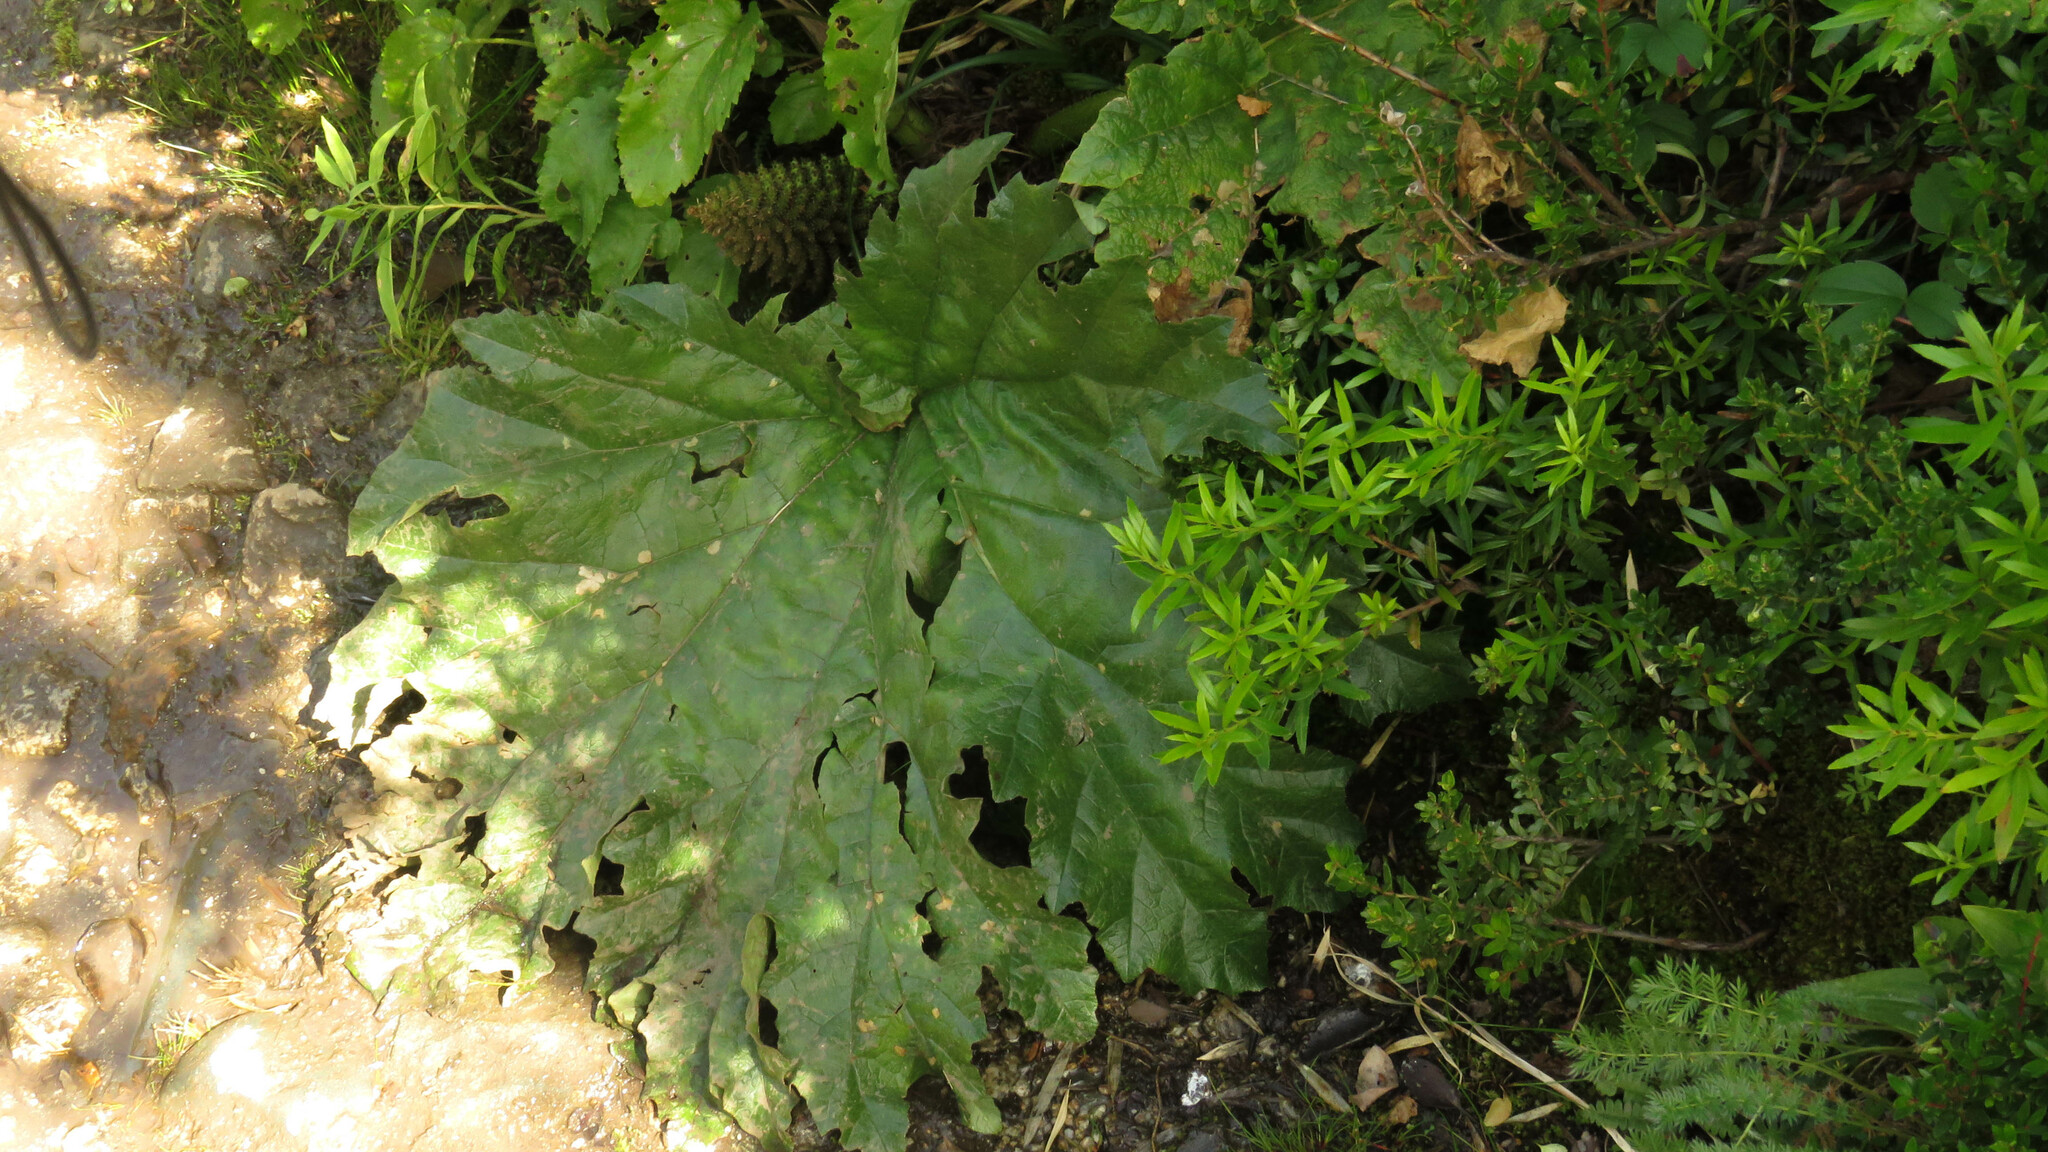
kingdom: Plantae
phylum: Tracheophyta
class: Magnoliopsida
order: Gunnerales
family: Gunneraceae
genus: Gunnera
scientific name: Gunnera tinctoria
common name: Giant-rhubarb
